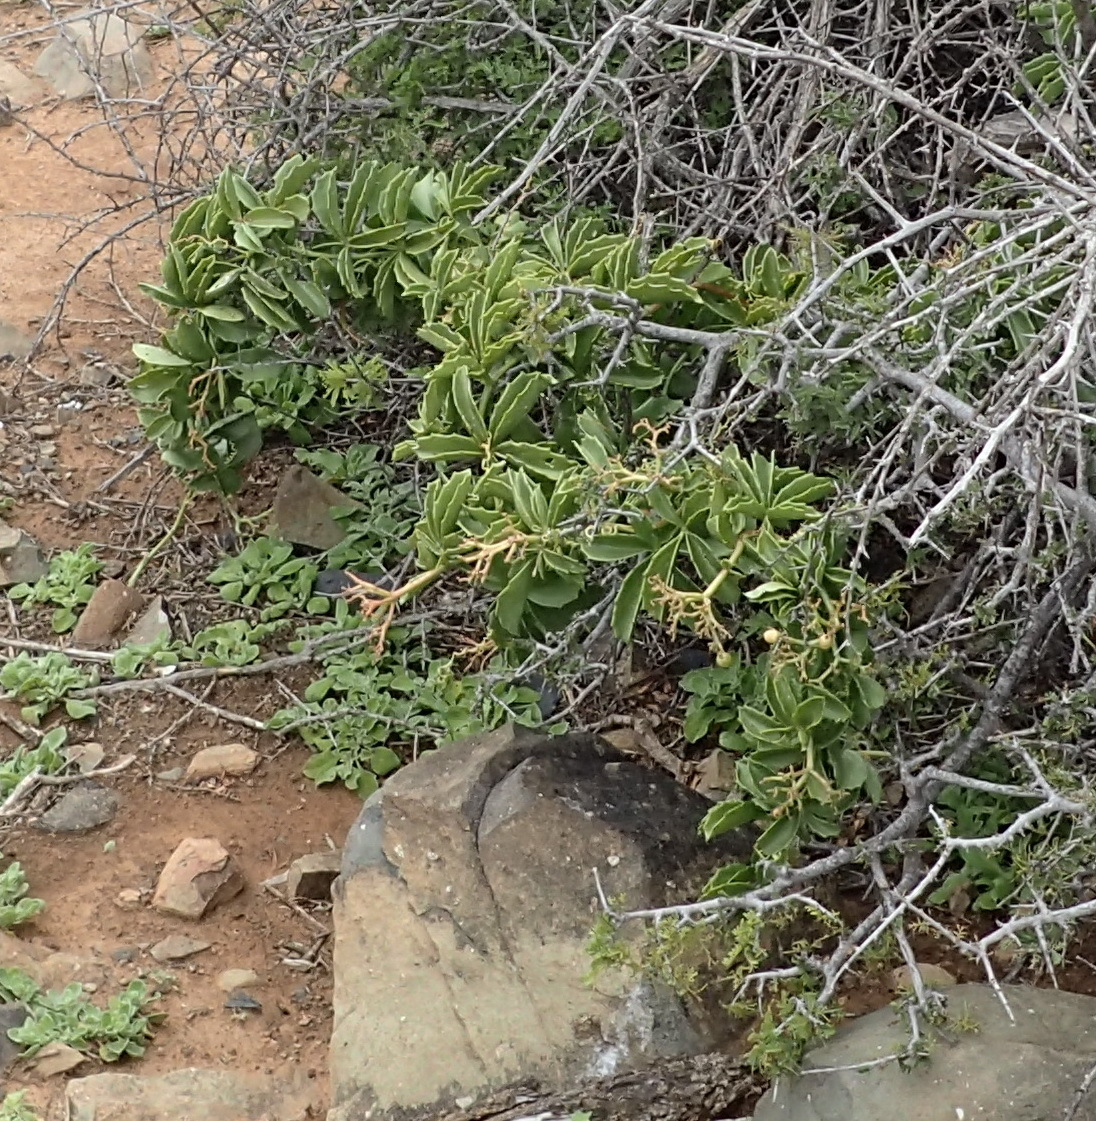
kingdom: Plantae
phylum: Tracheophyta
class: Magnoliopsida
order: Vitales
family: Vitaceae
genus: Cyphostemma
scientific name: Cyphostemma quinatum
